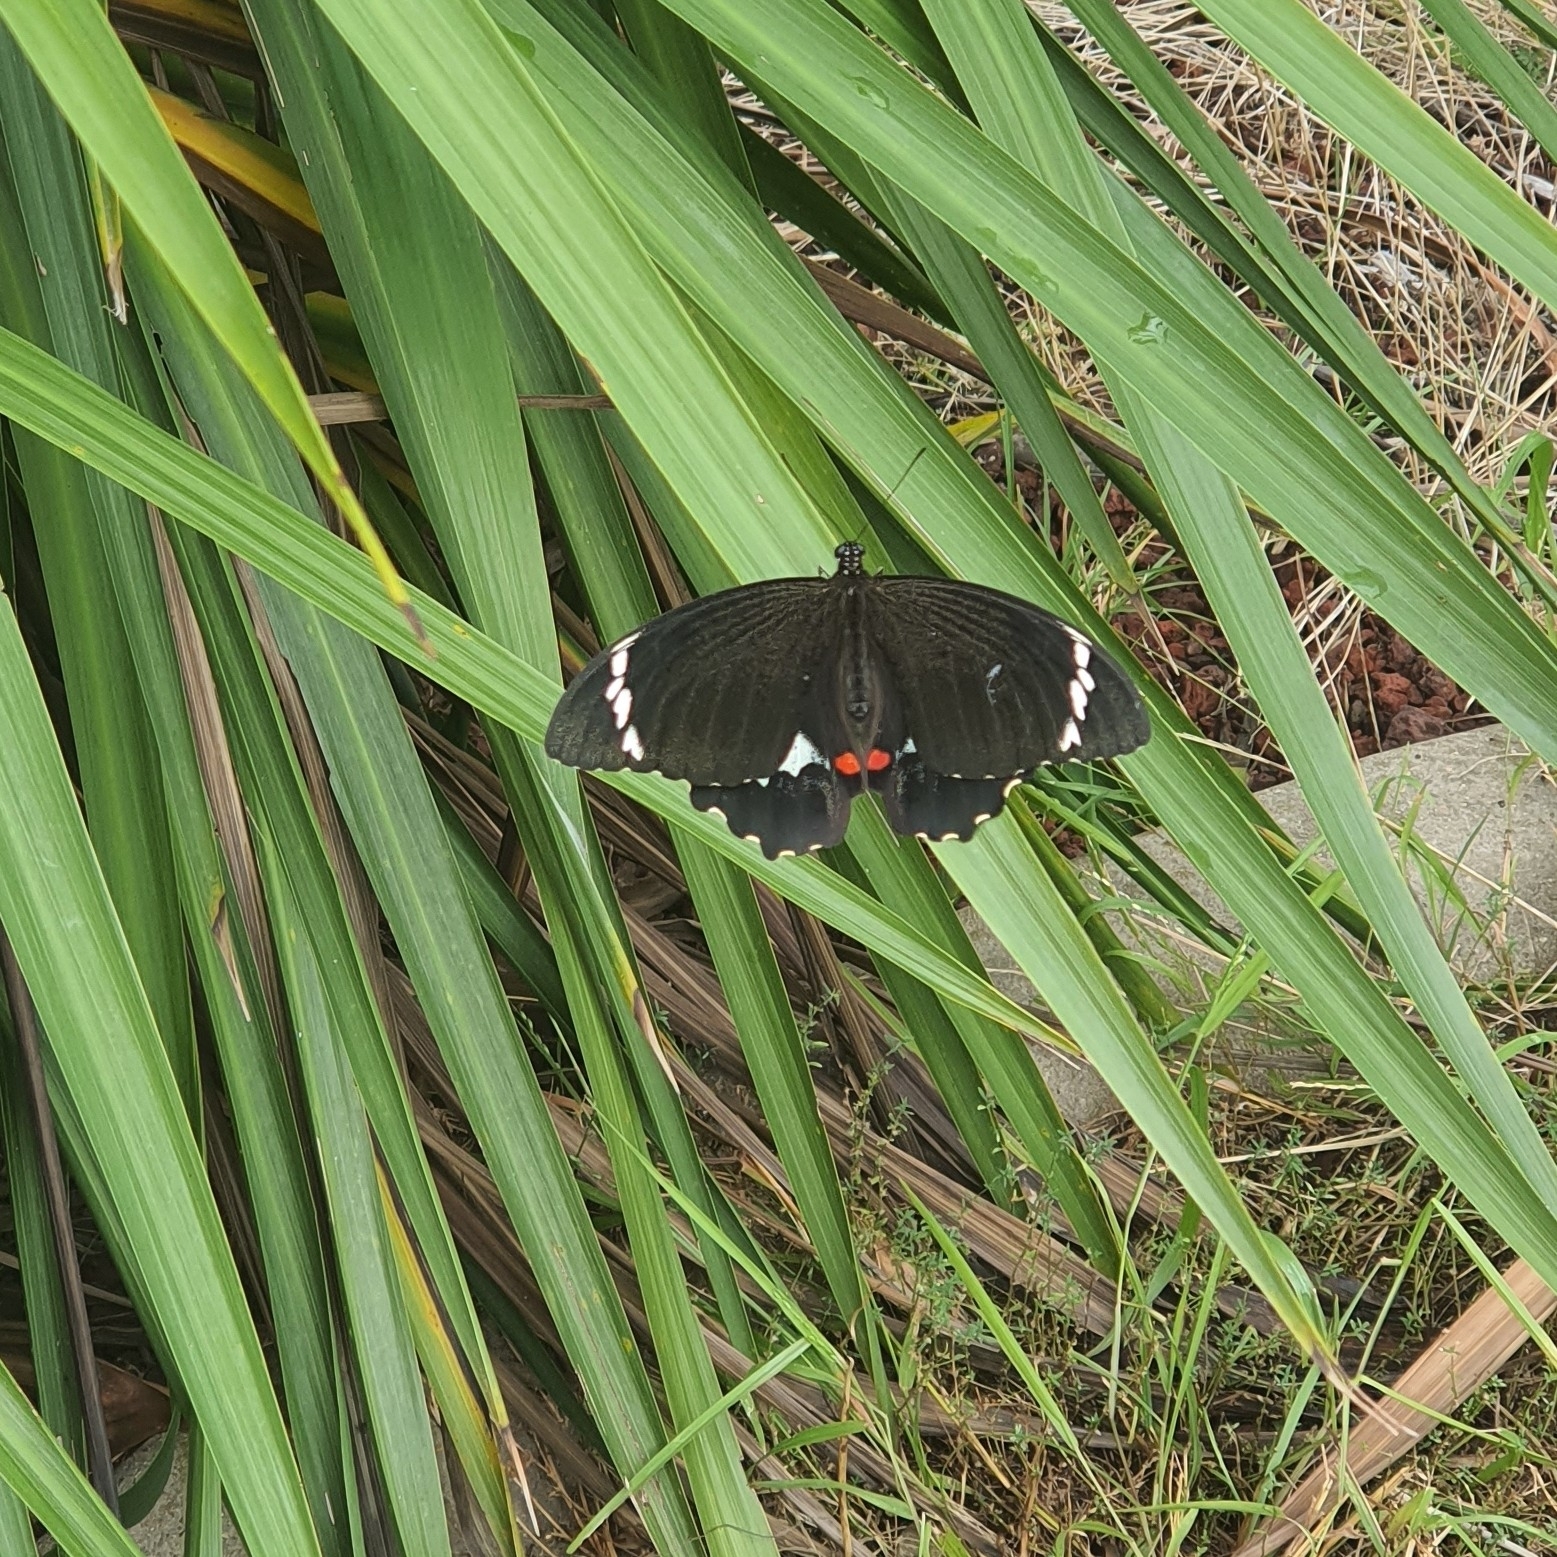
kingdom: Animalia
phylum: Arthropoda
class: Insecta
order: Lepidoptera
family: Papilionidae
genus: Papilio
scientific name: Papilio aegeus
